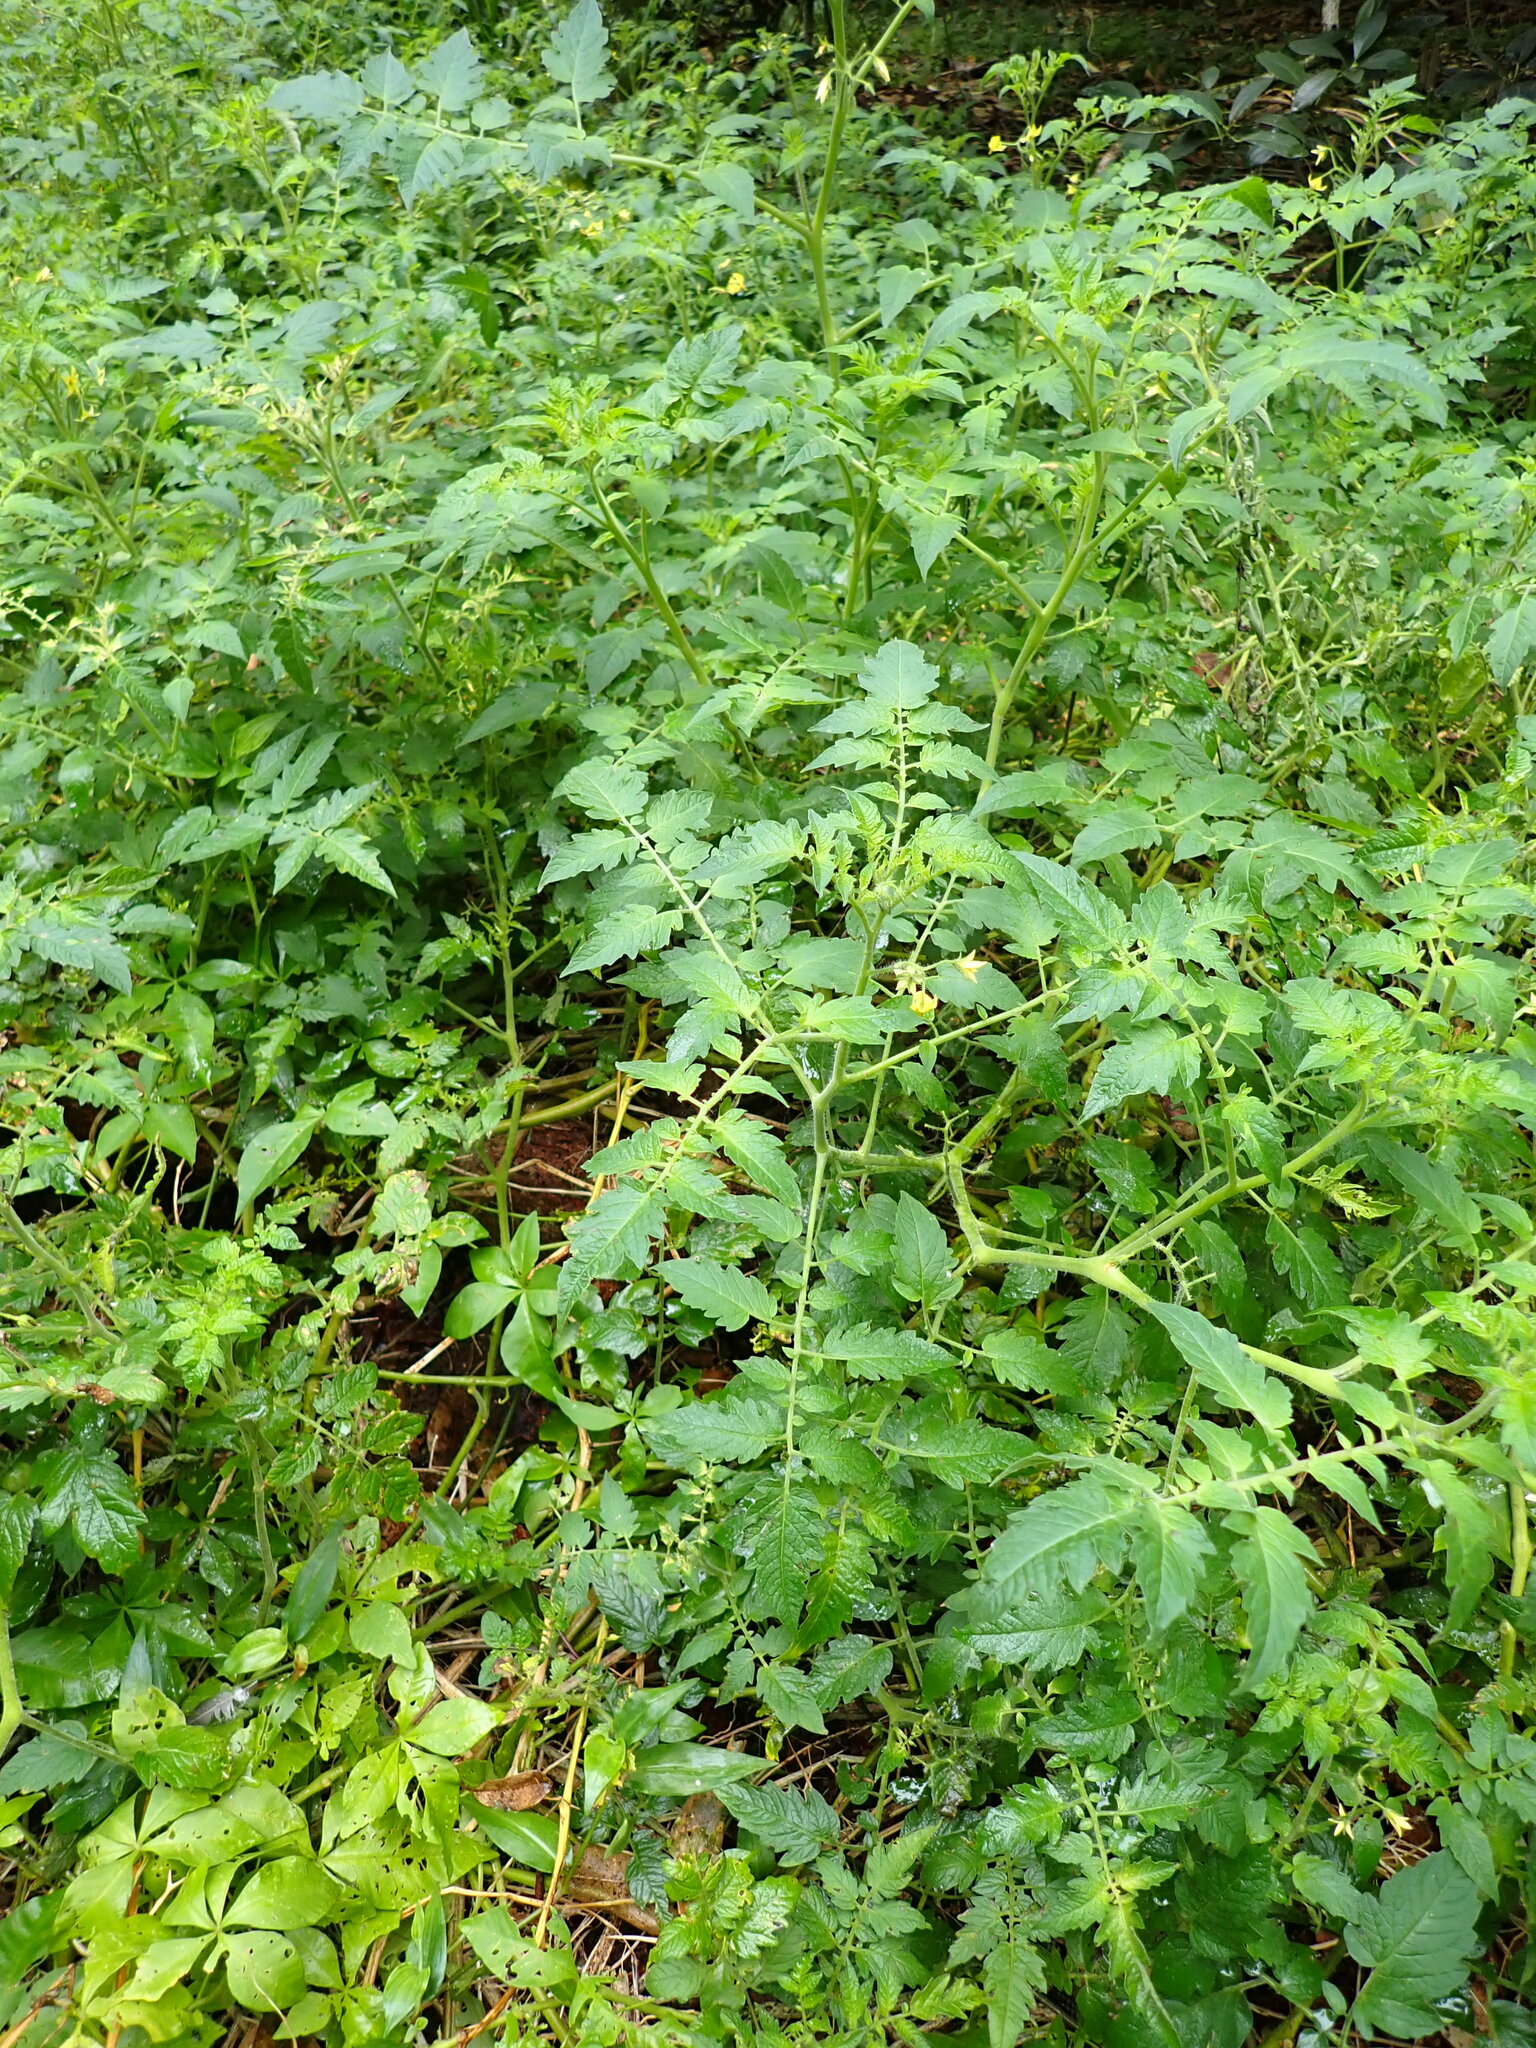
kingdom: Plantae
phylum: Tracheophyta
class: Magnoliopsida
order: Solanales
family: Solanaceae
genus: Solanum
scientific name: Solanum lycopersicum
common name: Garden tomato
